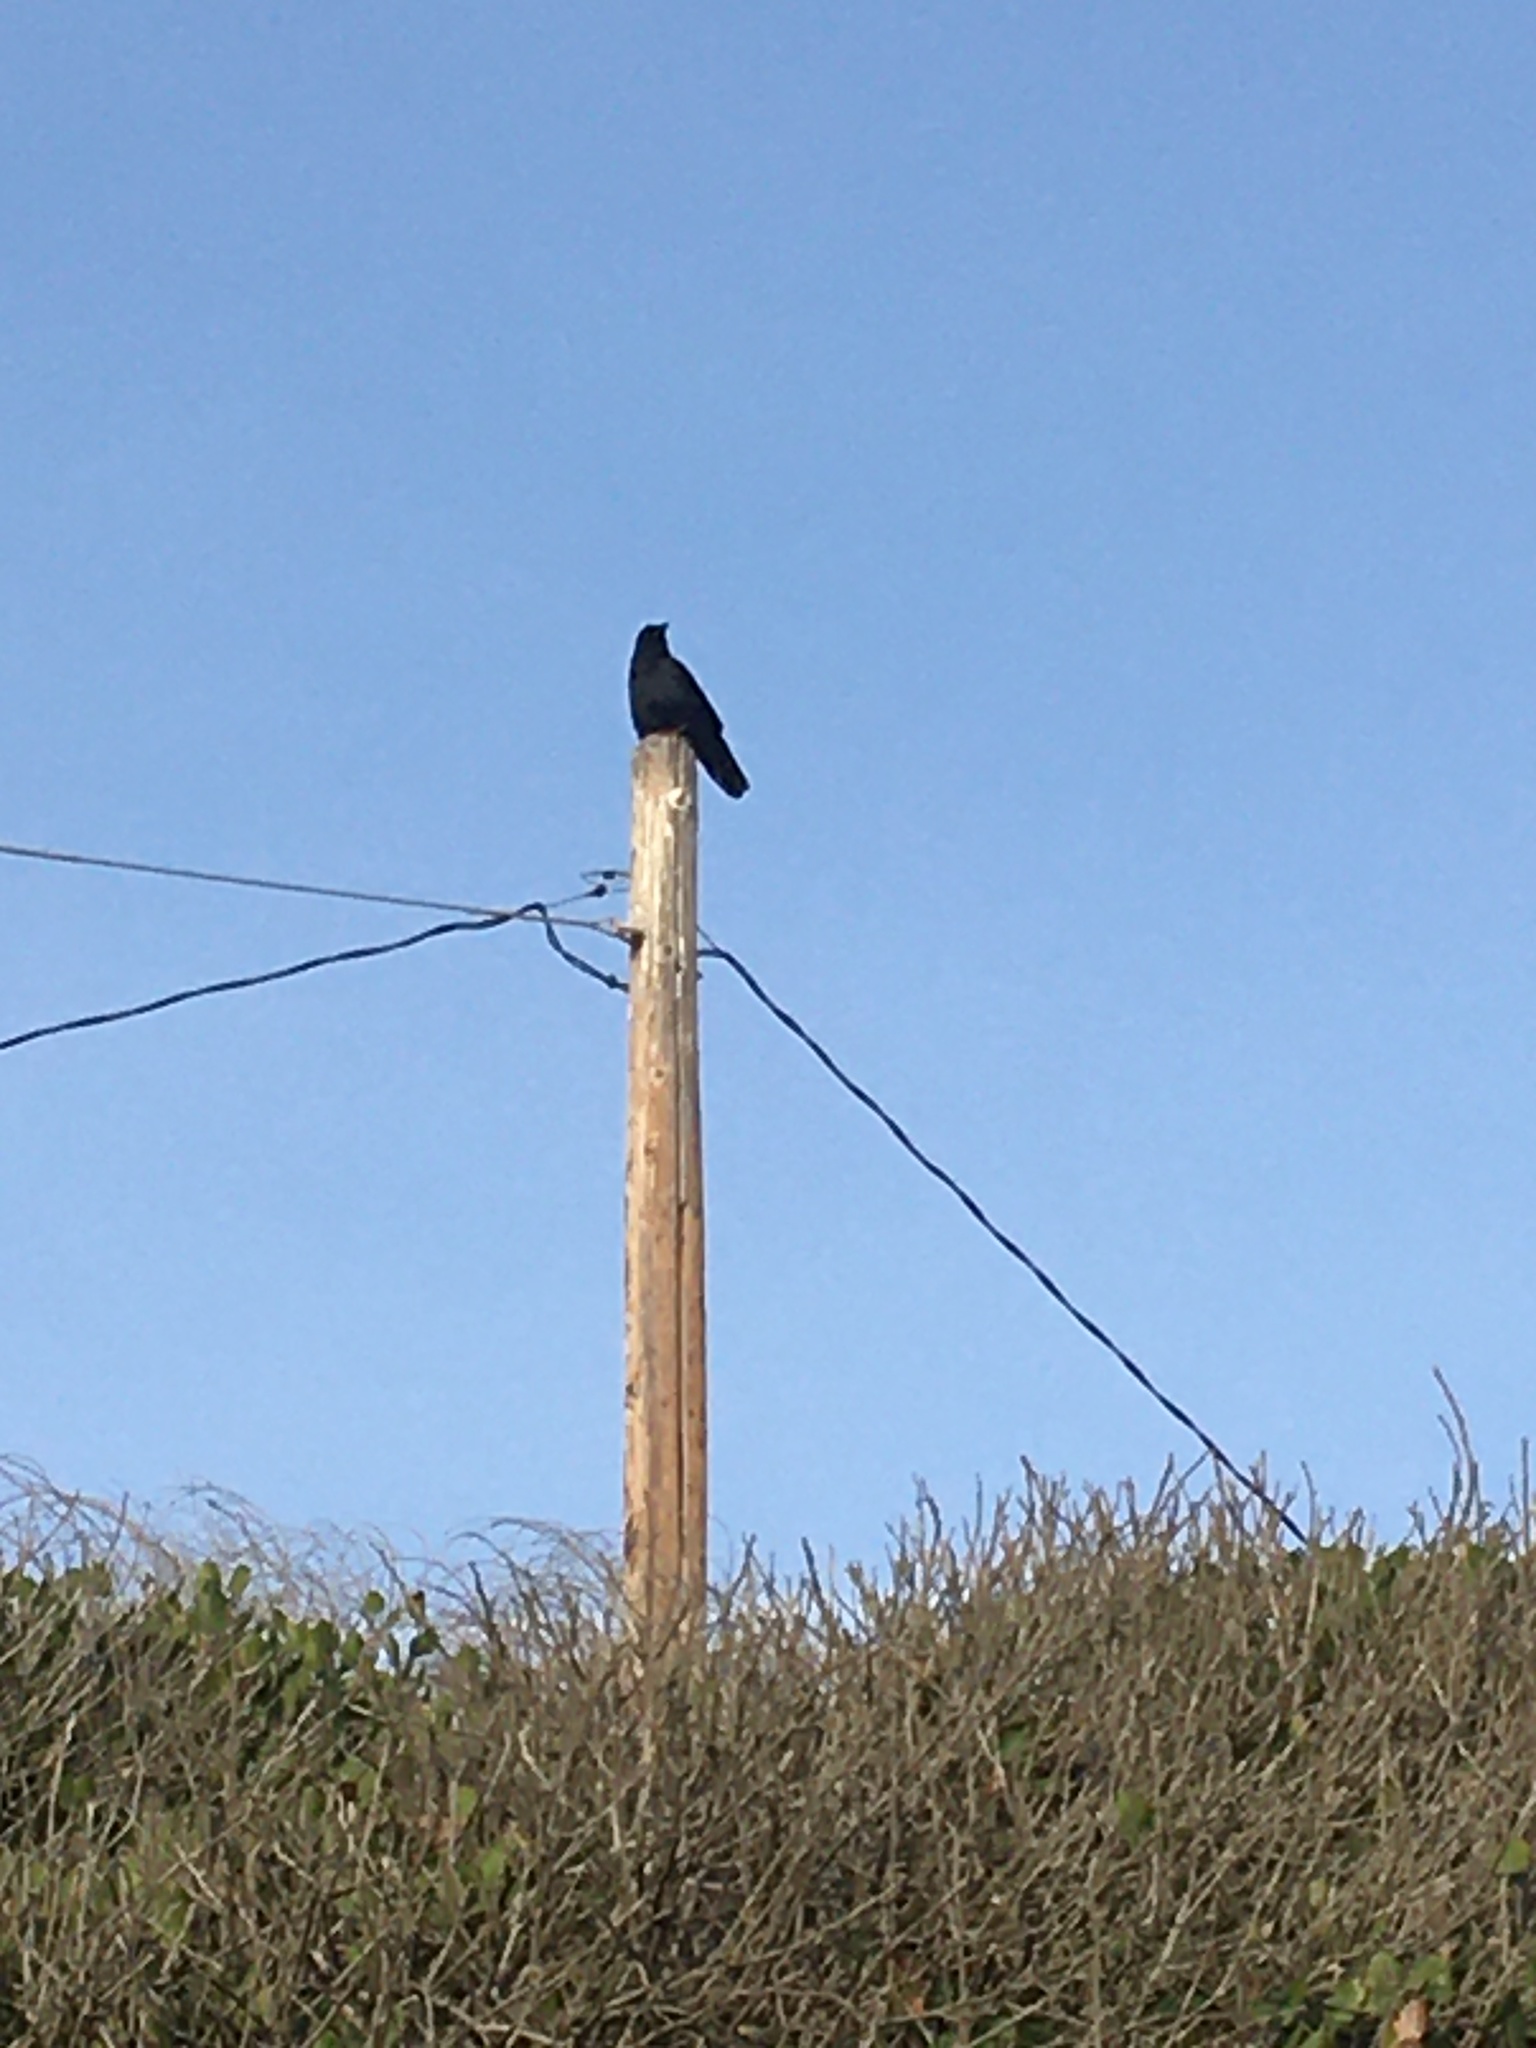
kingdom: Animalia
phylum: Chordata
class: Aves
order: Passeriformes
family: Corvidae
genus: Corvus
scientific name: Corvus corax
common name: Common raven
